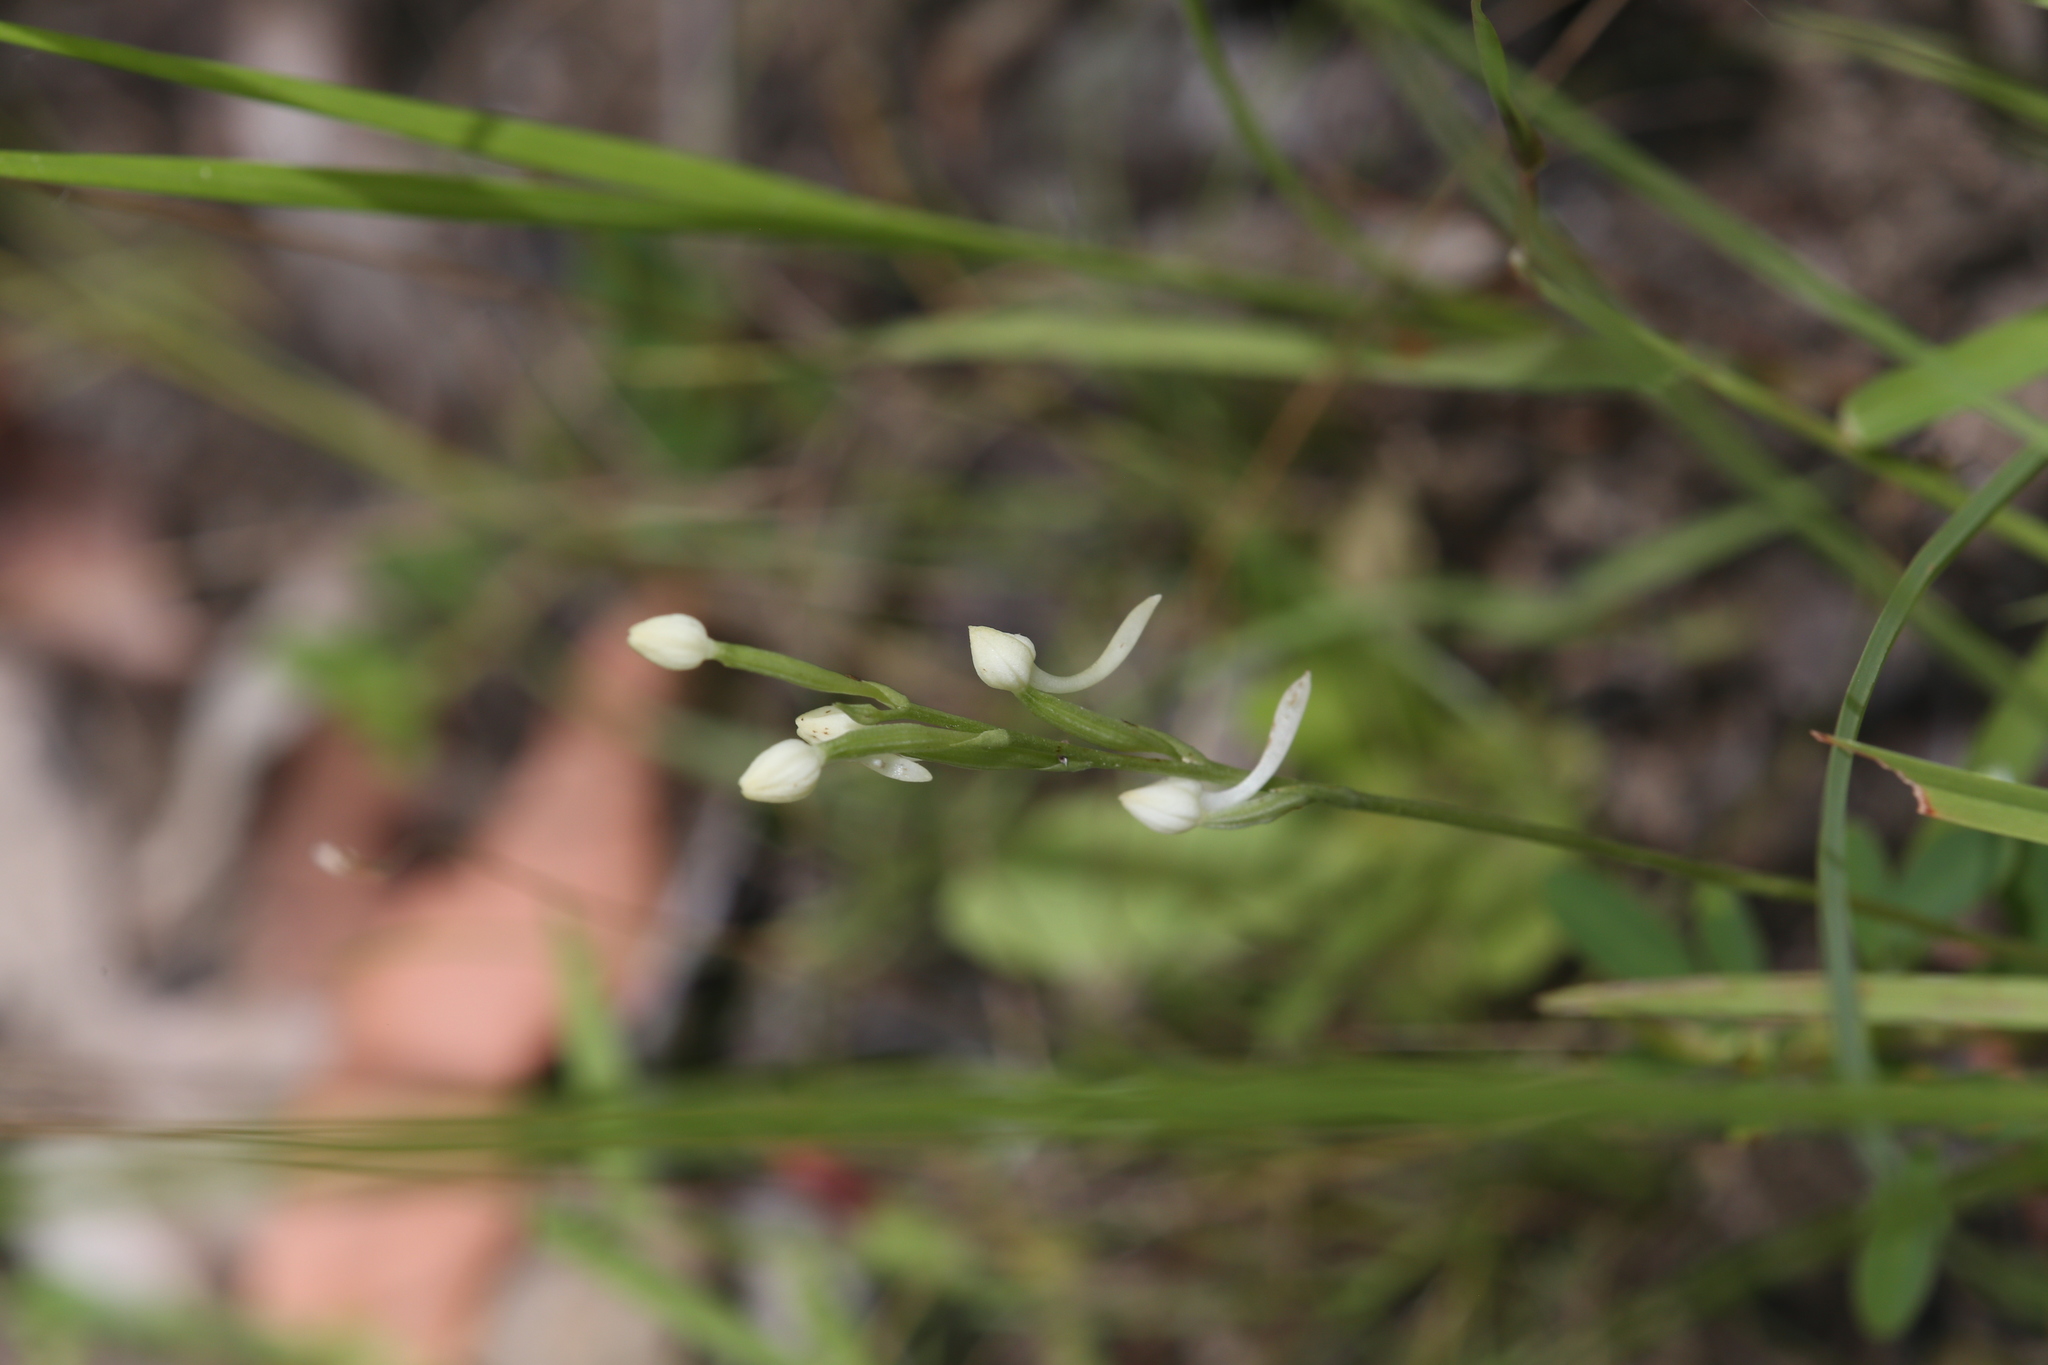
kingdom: Plantae
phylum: Tracheophyta
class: Liliopsida
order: Asparagales
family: Orchidaceae
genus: Habenaria
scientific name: Habenaria propinquior
